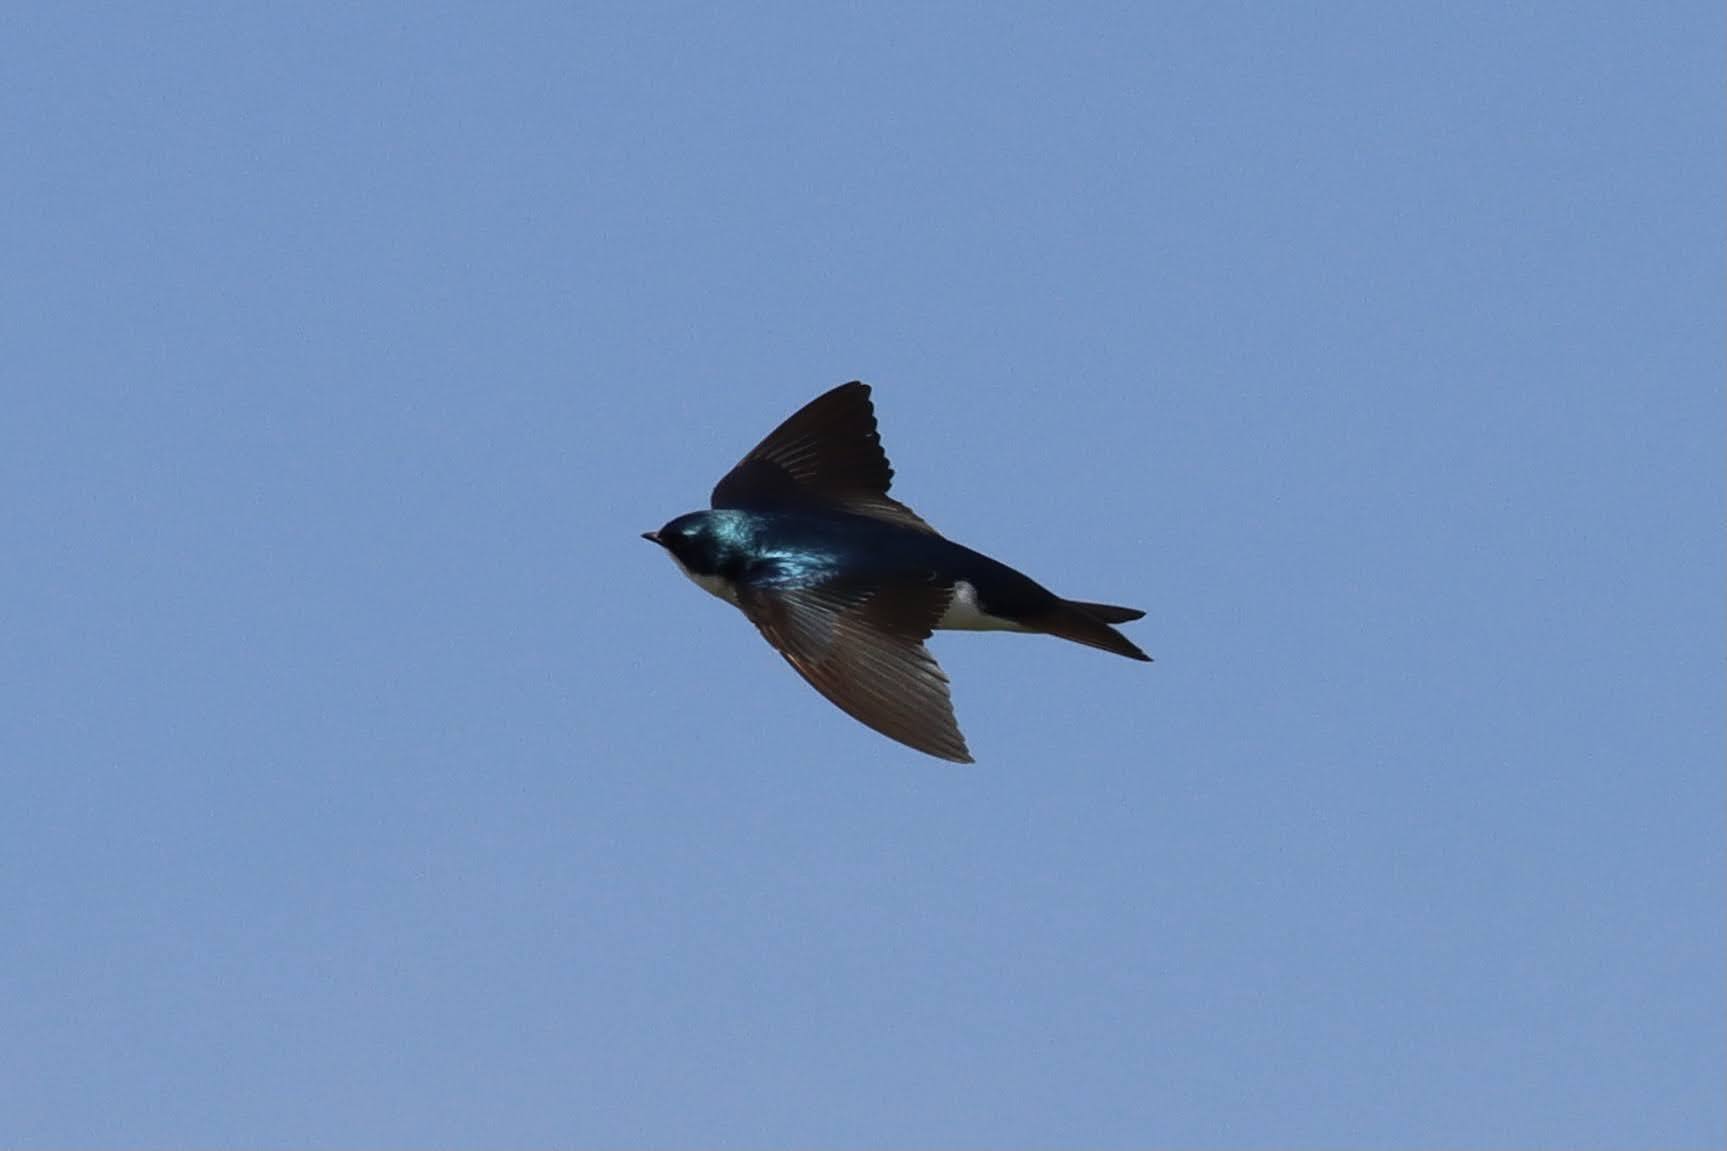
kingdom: Animalia
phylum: Chordata
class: Aves
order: Passeriformes
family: Hirundinidae
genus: Tachycineta
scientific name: Tachycineta bicolor
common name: Tree swallow
